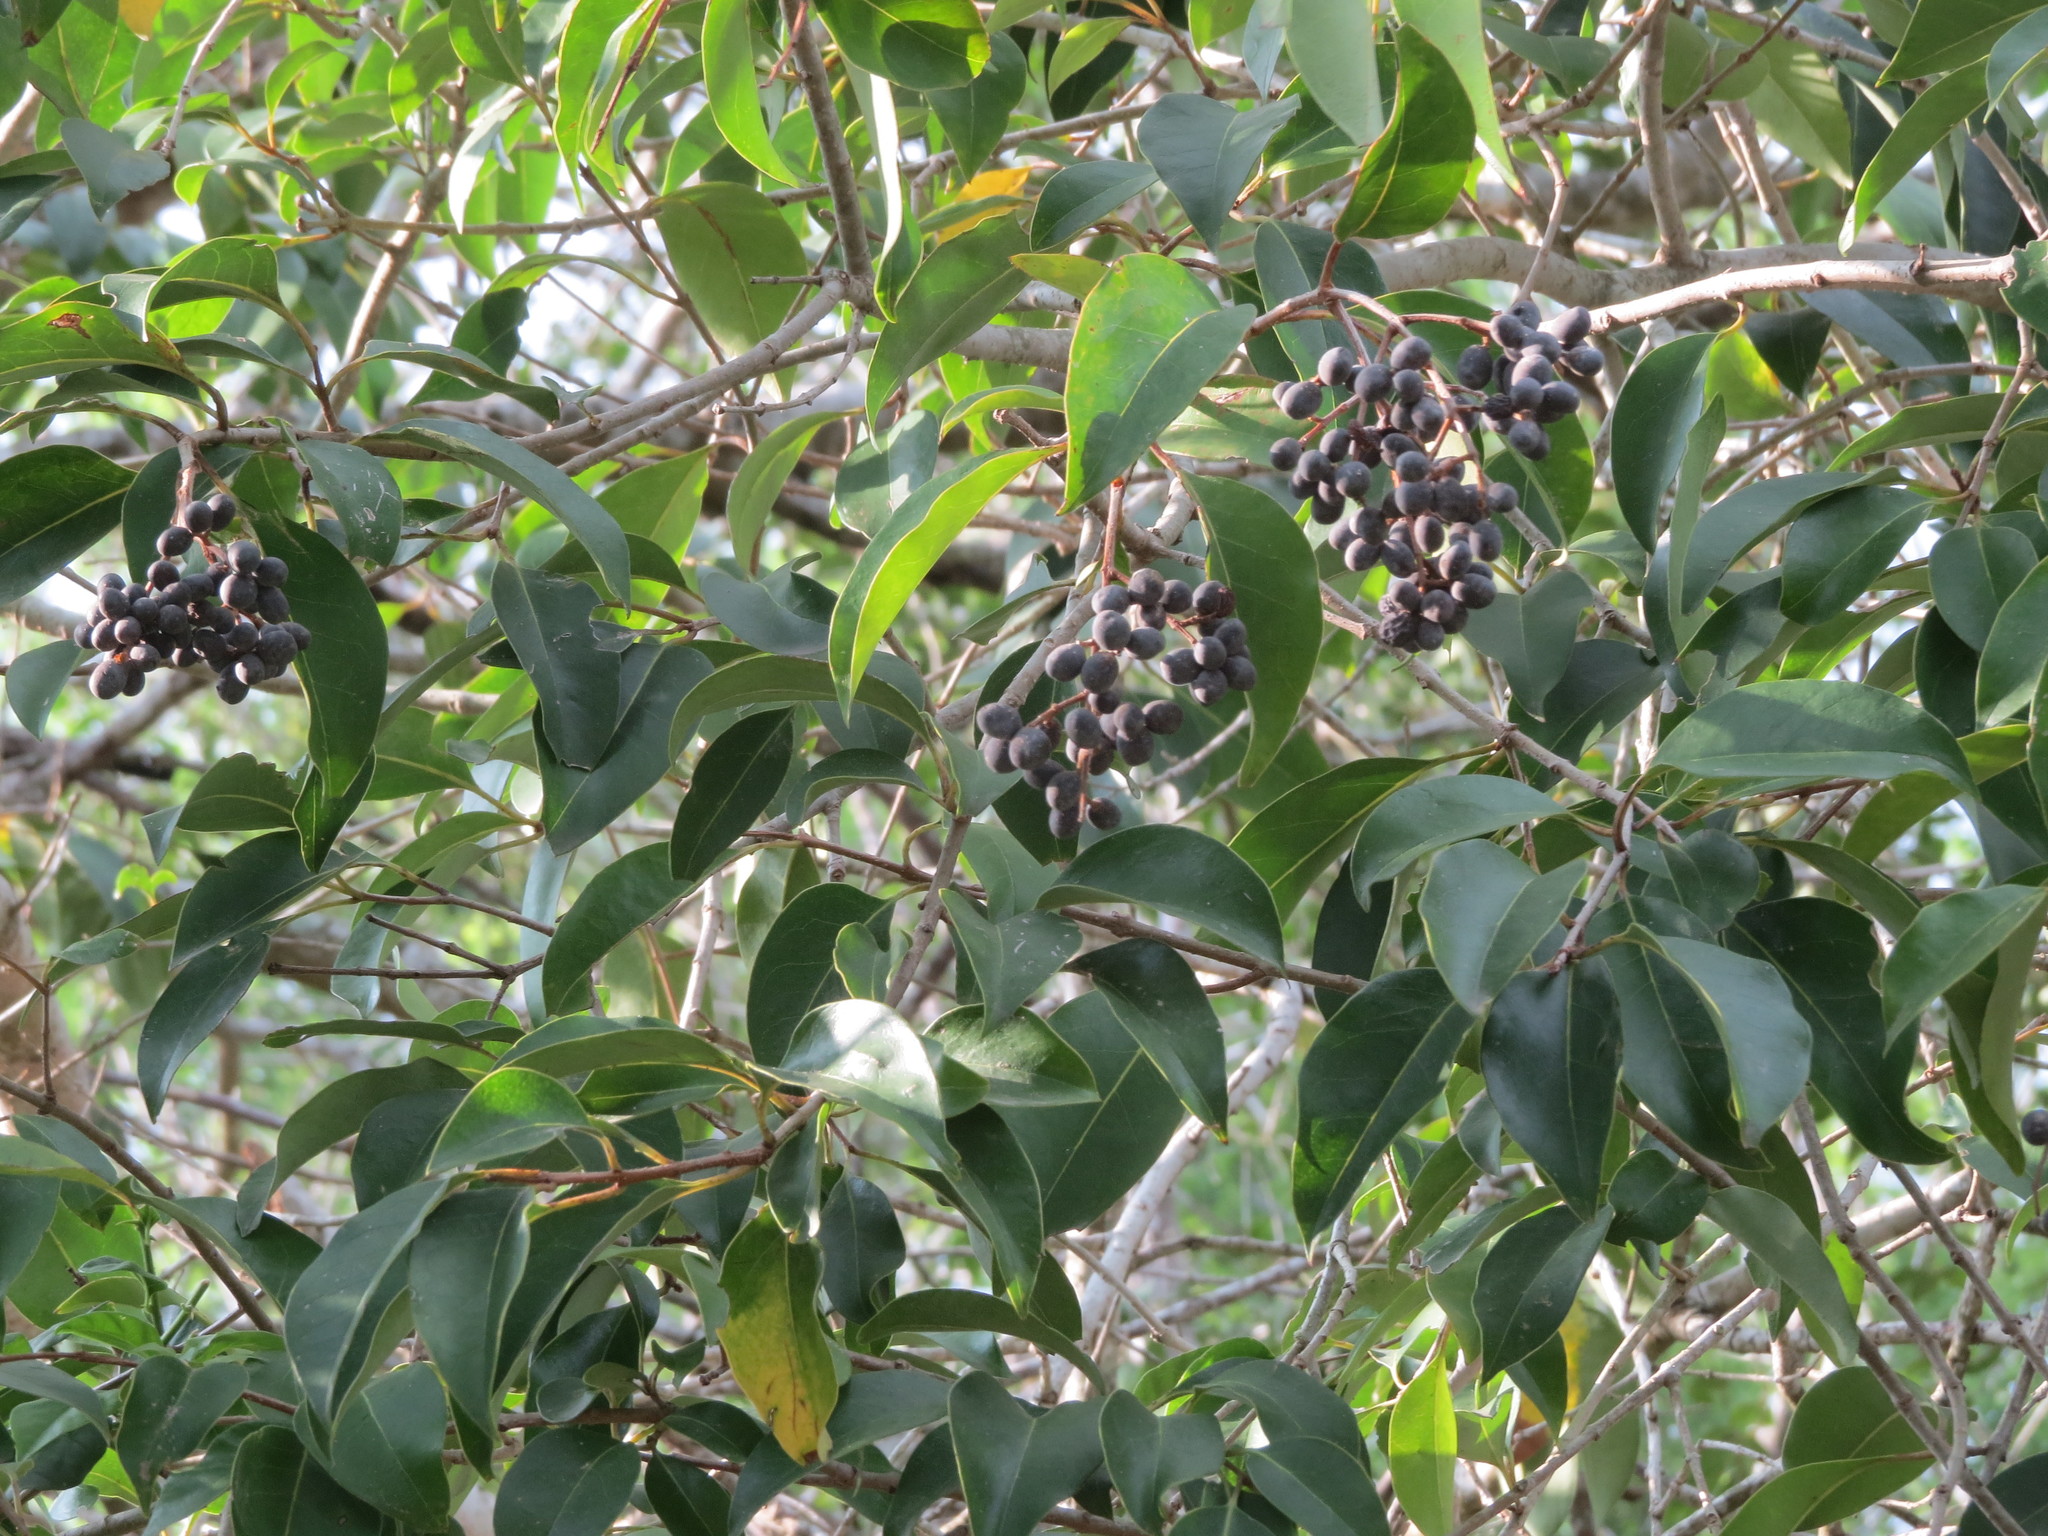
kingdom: Plantae
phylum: Tracheophyta
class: Magnoliopsida
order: Lamiales
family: Oleaceae
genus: Ligustrum
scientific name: Ligustrum lucidum
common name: Glossy privet
